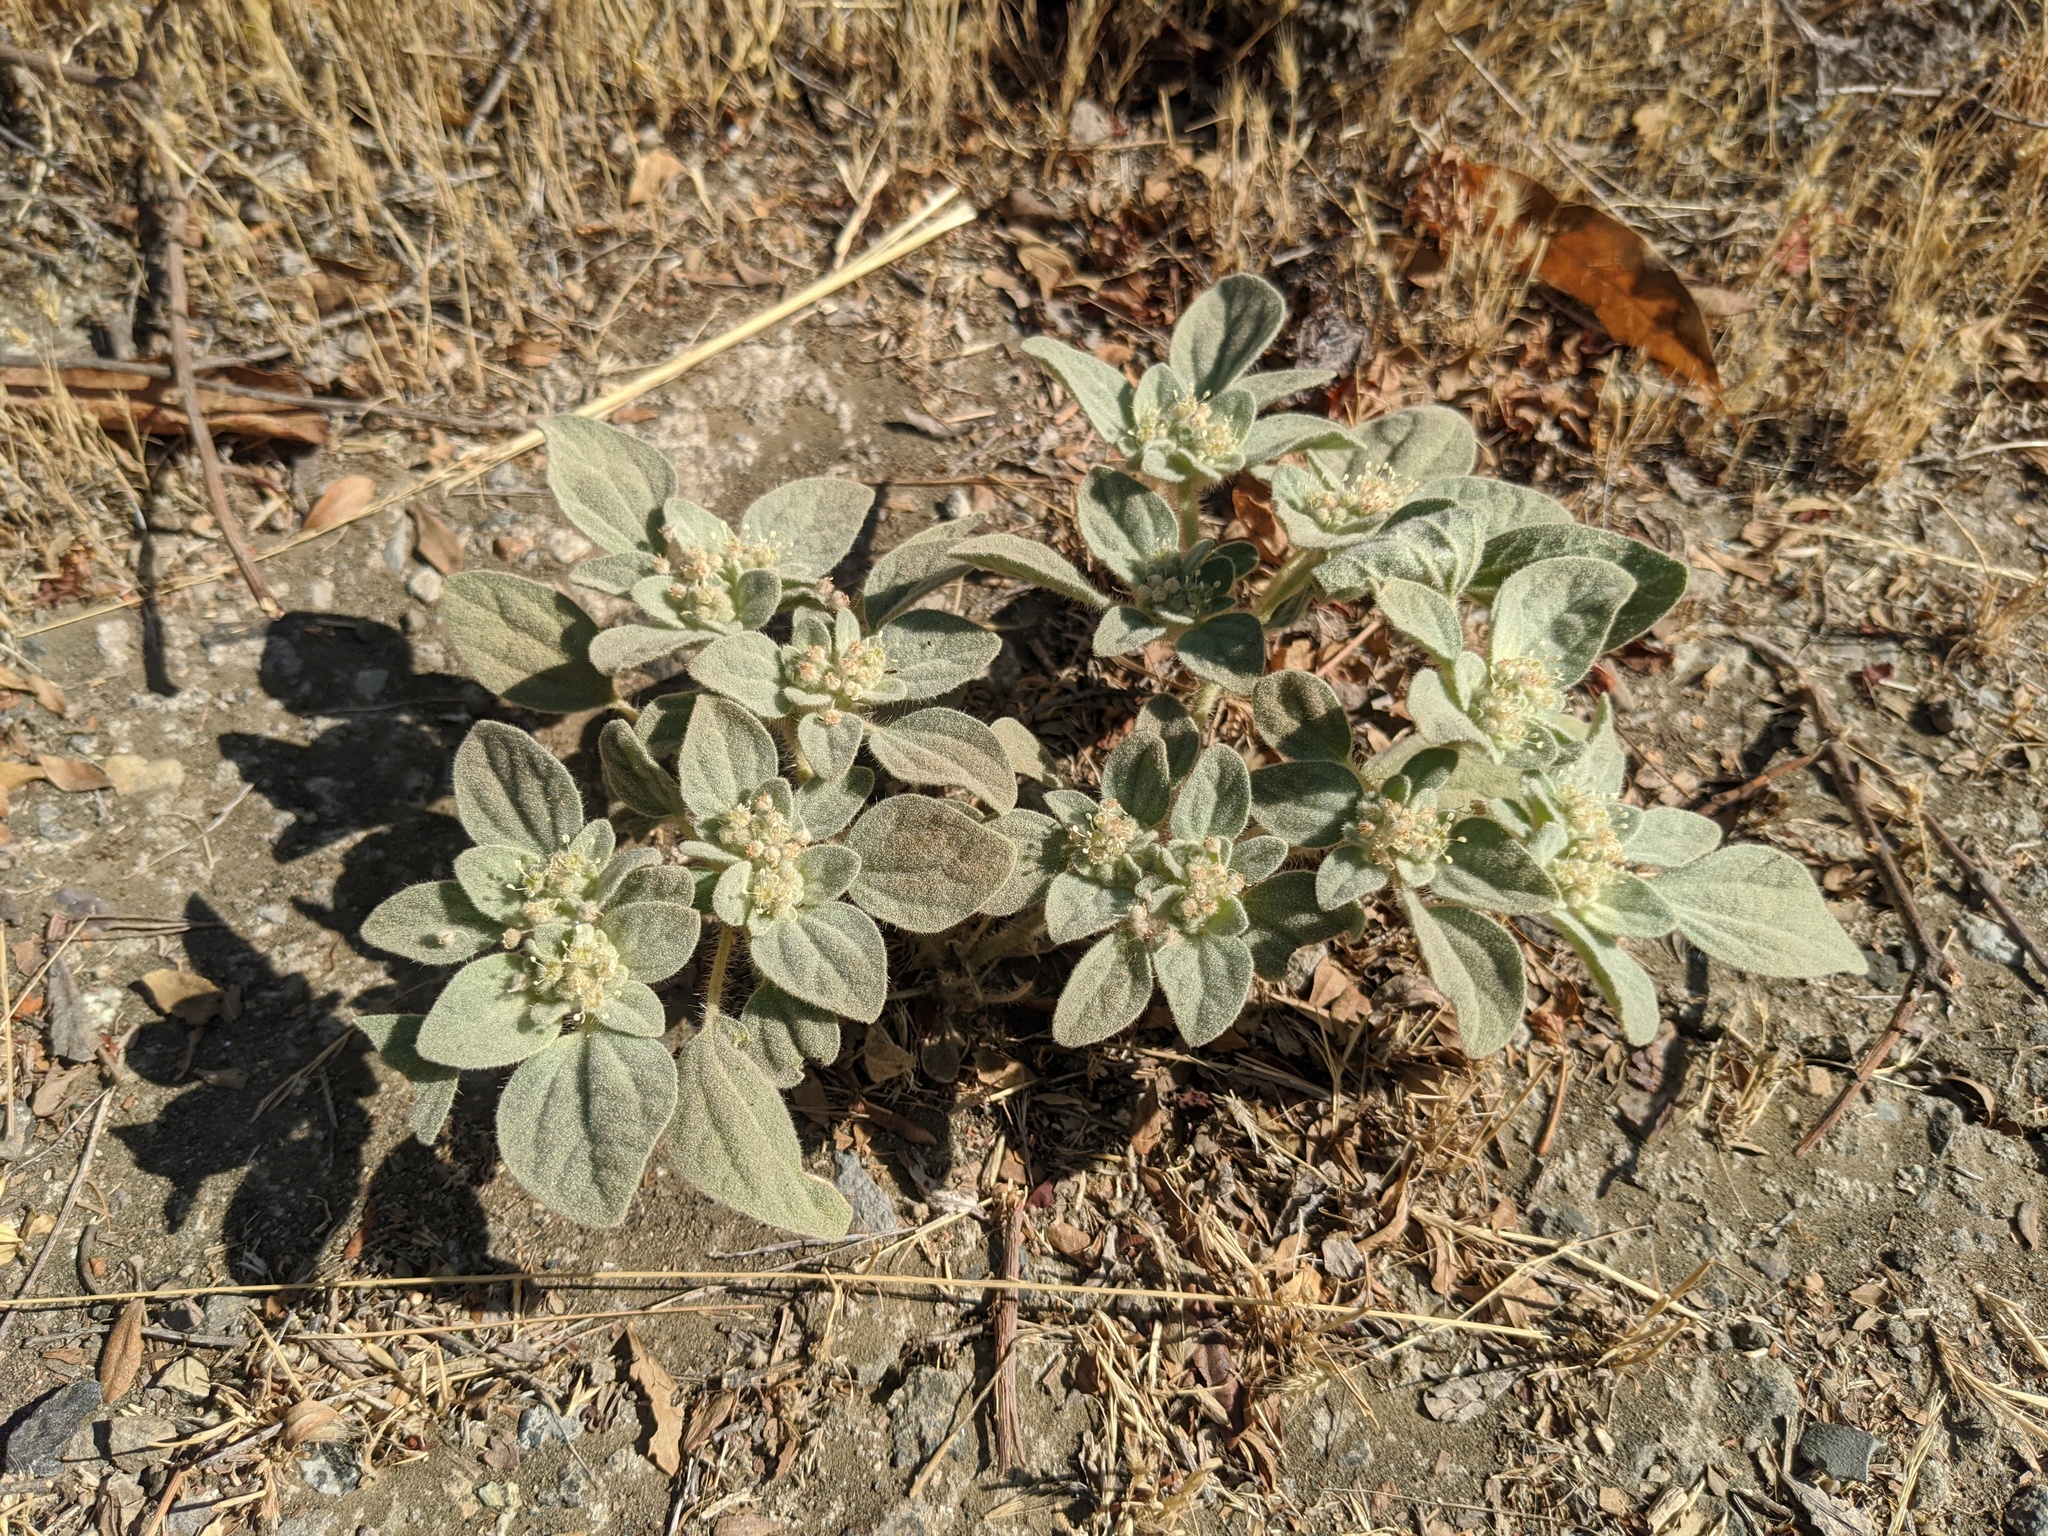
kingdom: Plantae
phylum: Tracheophyta
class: Magnoliopsida
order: Malpighiales
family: Euphorbiaceae
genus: Croton
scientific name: Croton setiger
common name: Dove weed
